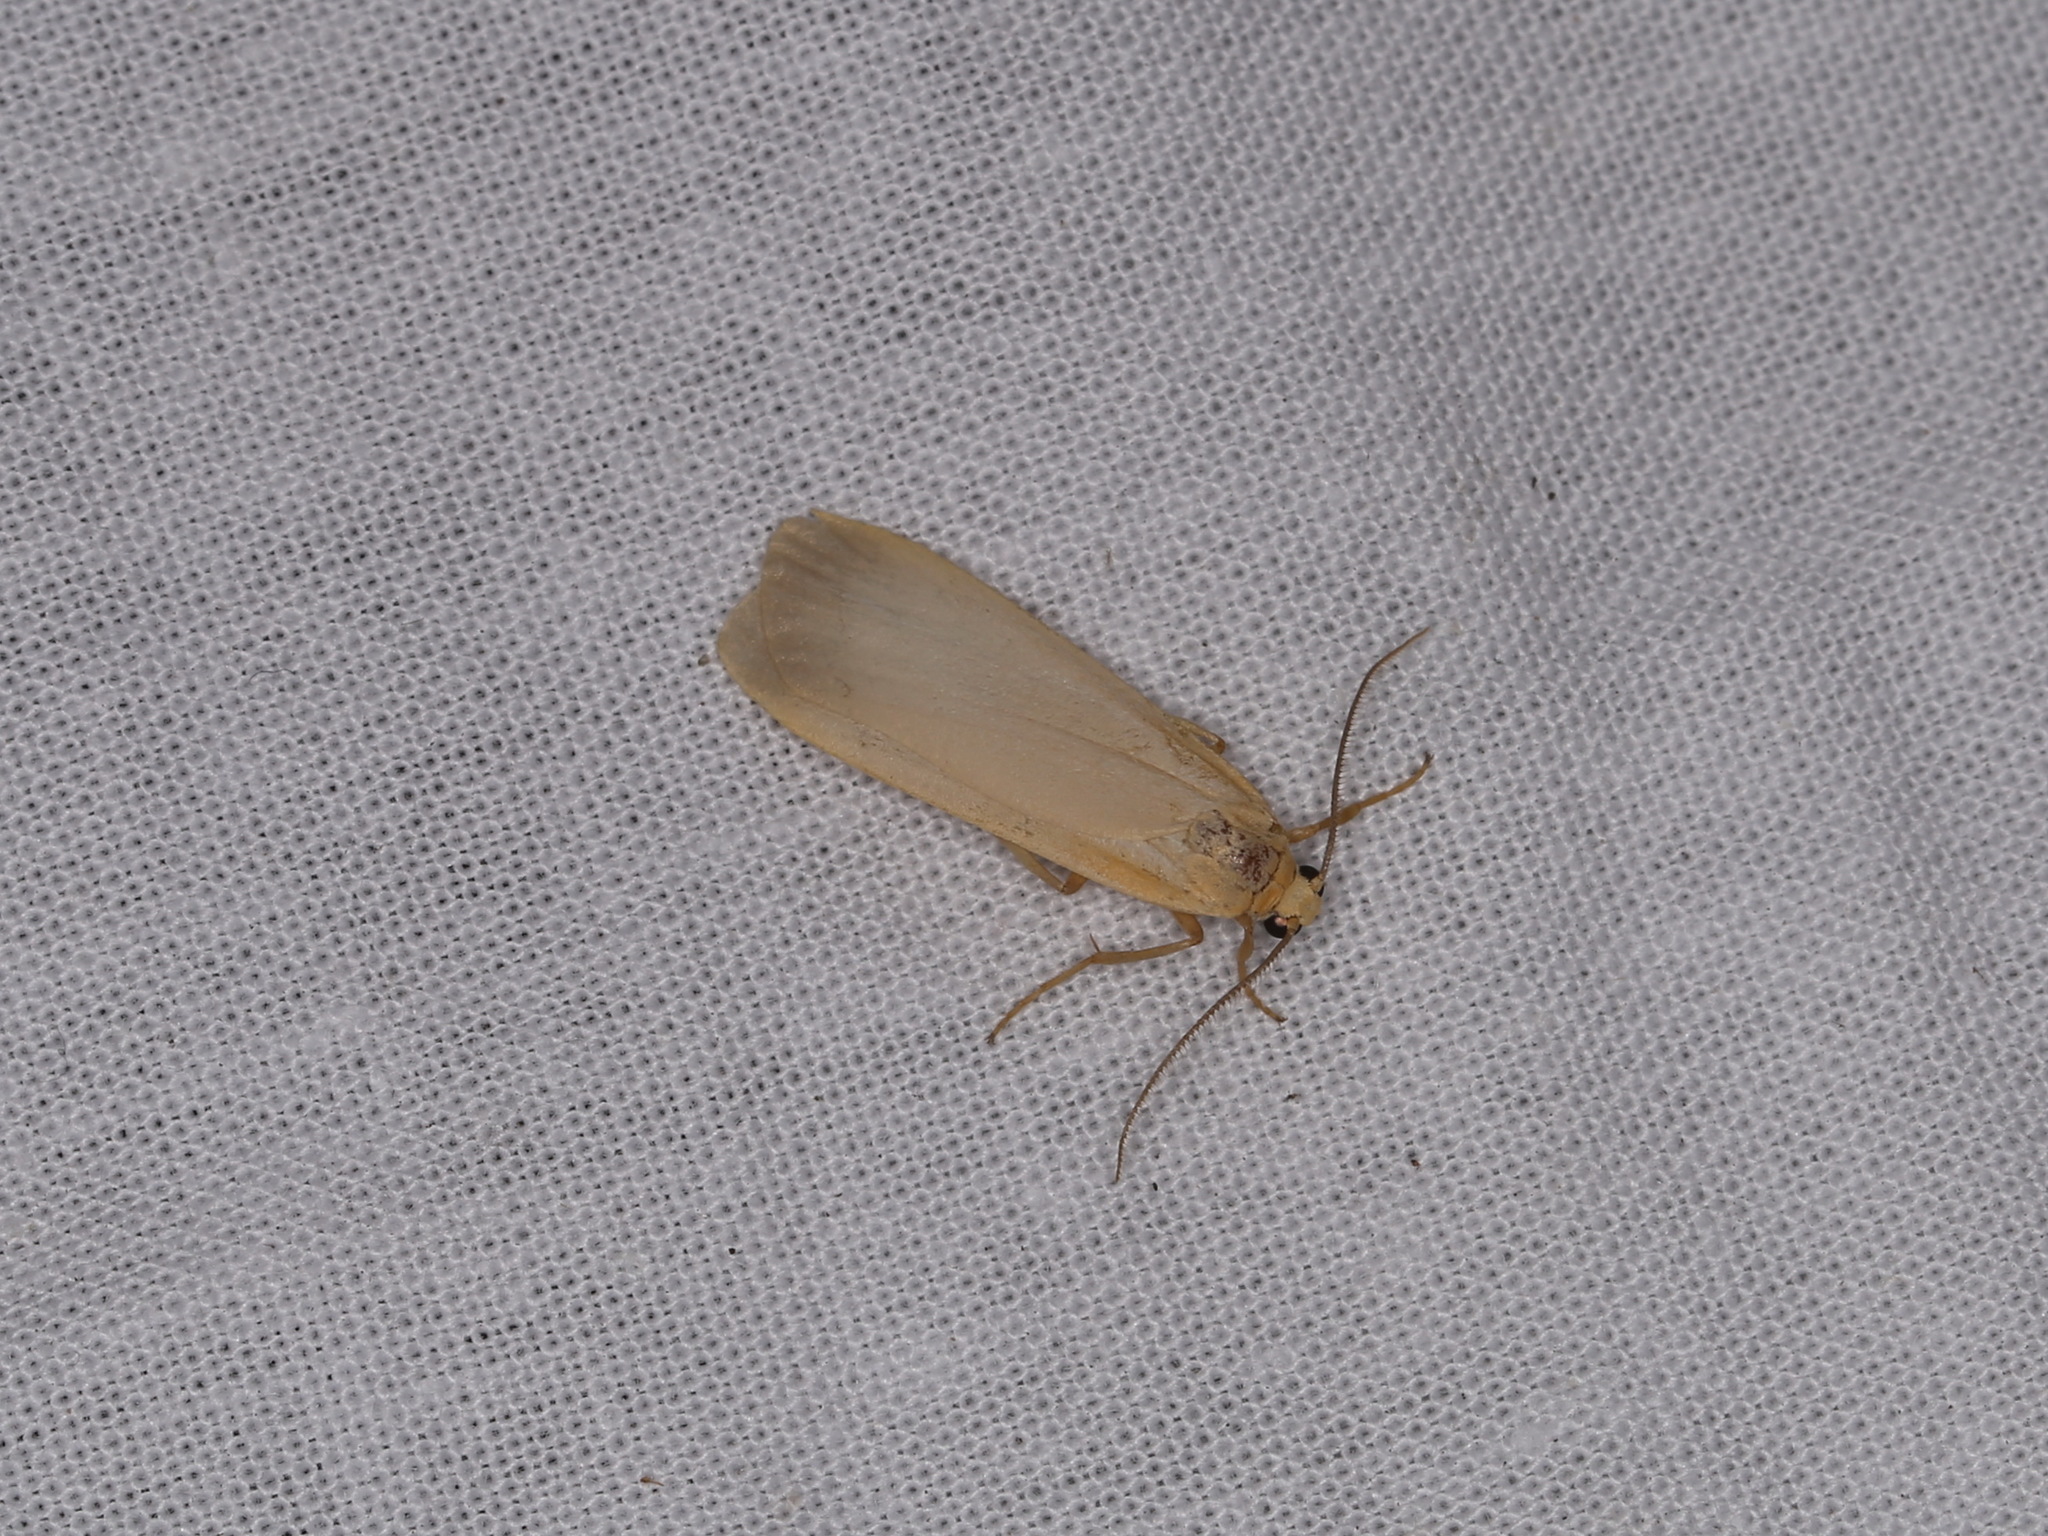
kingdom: Animalia
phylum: Arthropoda
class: Insecta
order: Lepidoptera
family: Erebidae
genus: Katha
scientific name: Katha depressa
